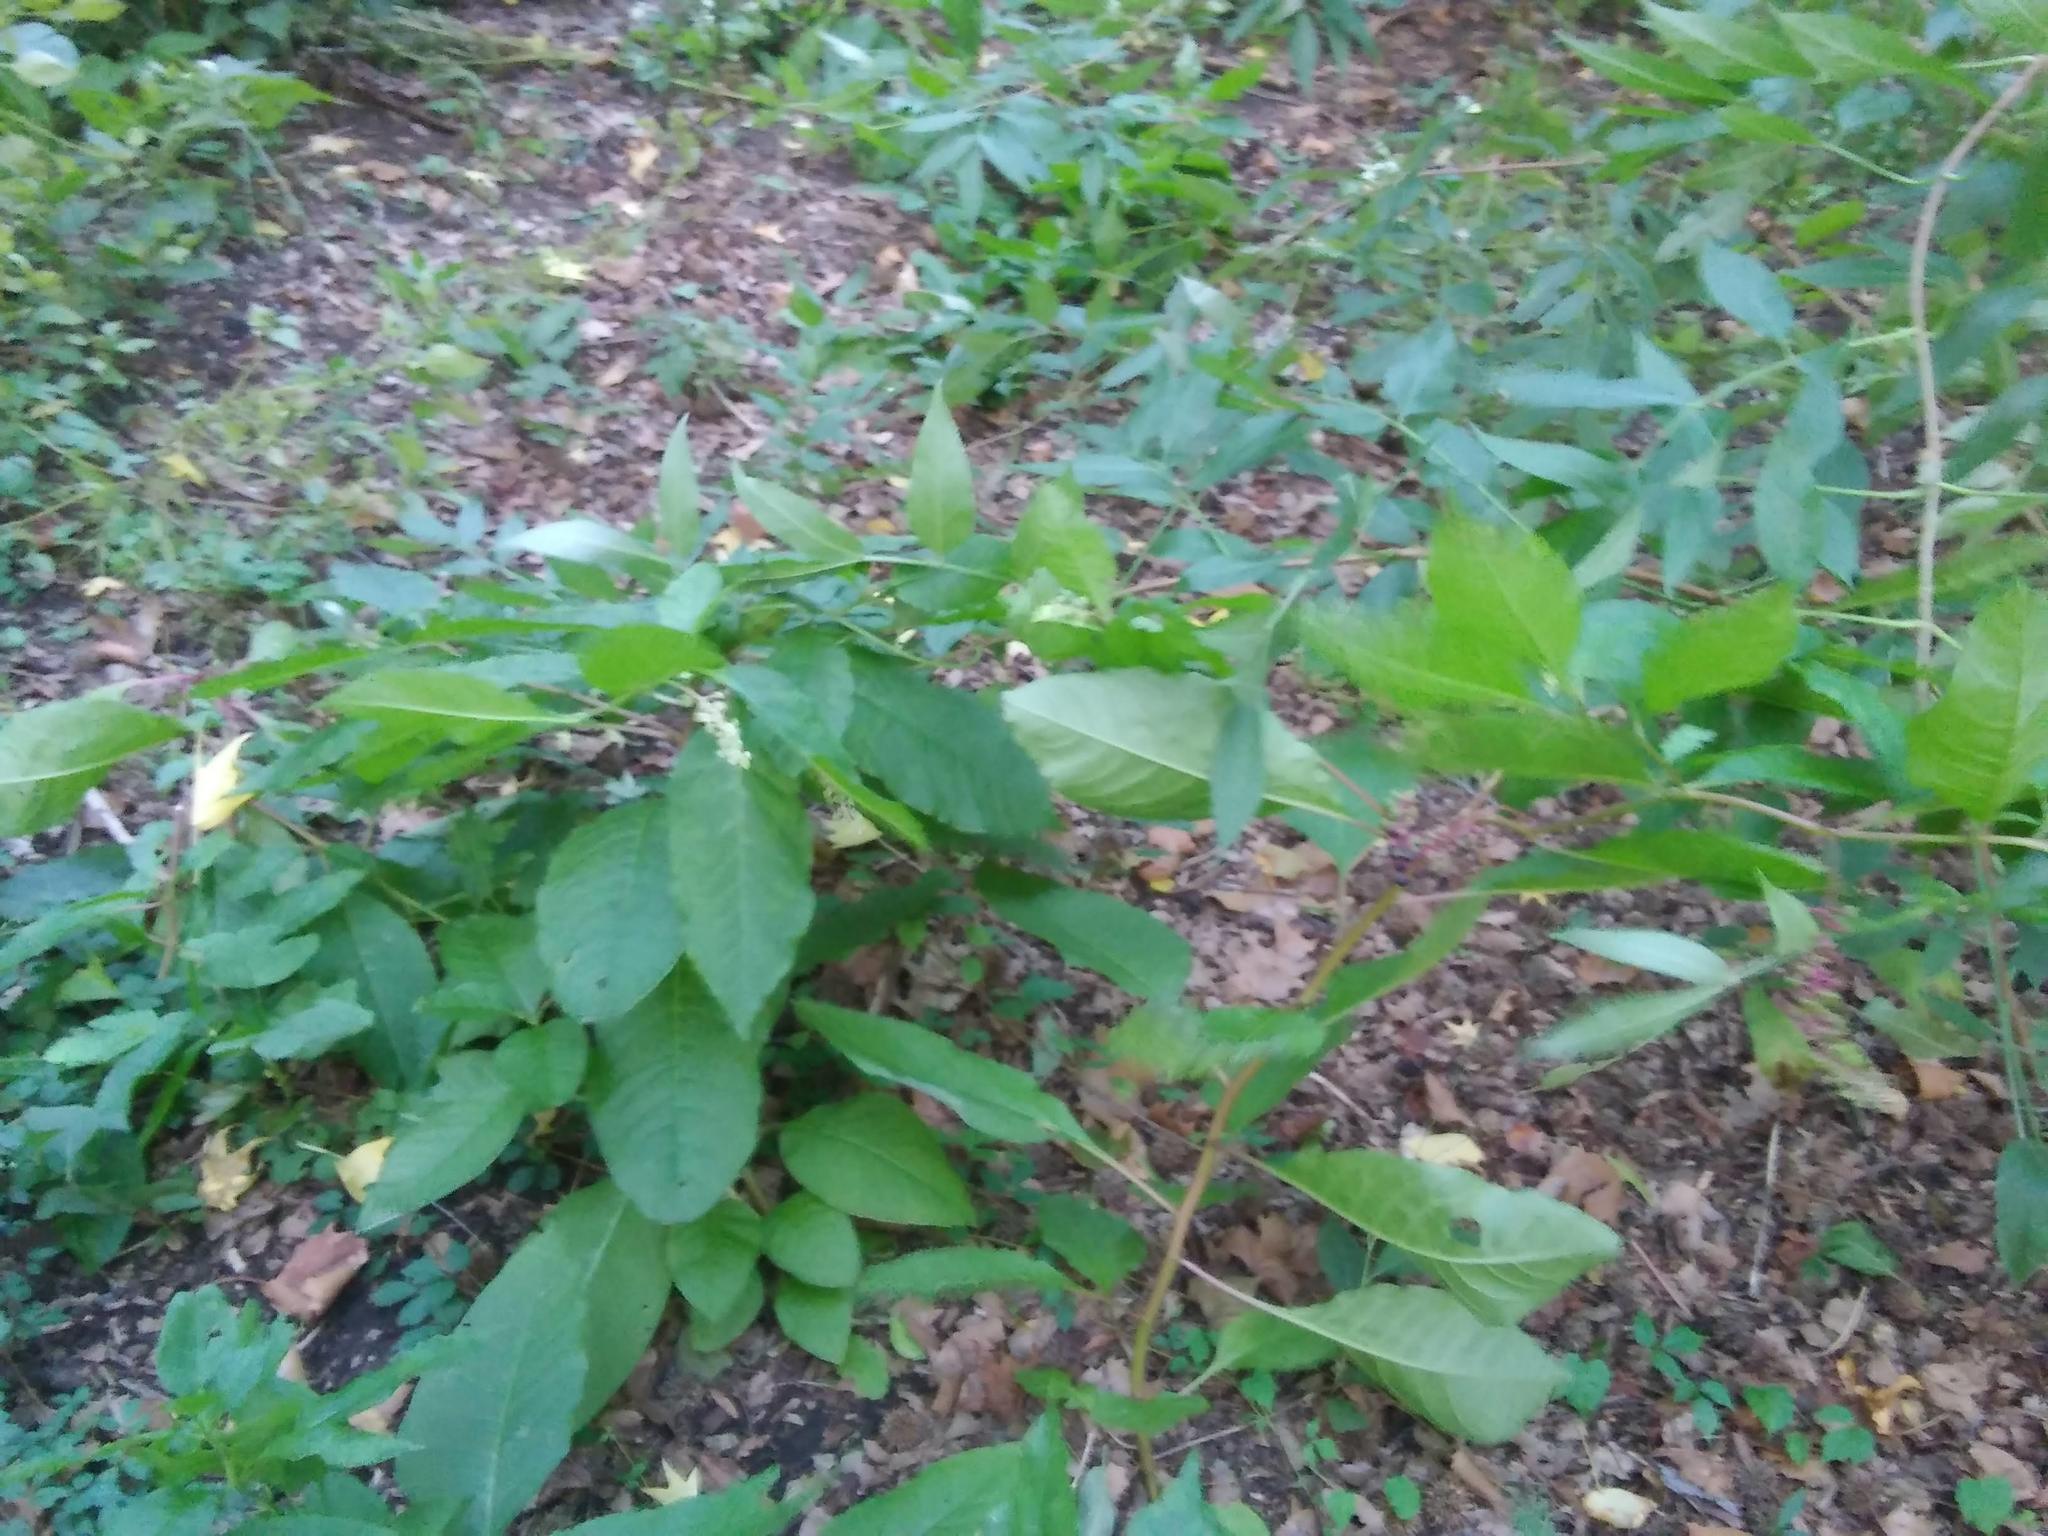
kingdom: Plantae
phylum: Tracheophyta
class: Magnoliopsida
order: Asterales
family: Asteraceae
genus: Ageratina
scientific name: Ageratina altissima
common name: White snakeroot
